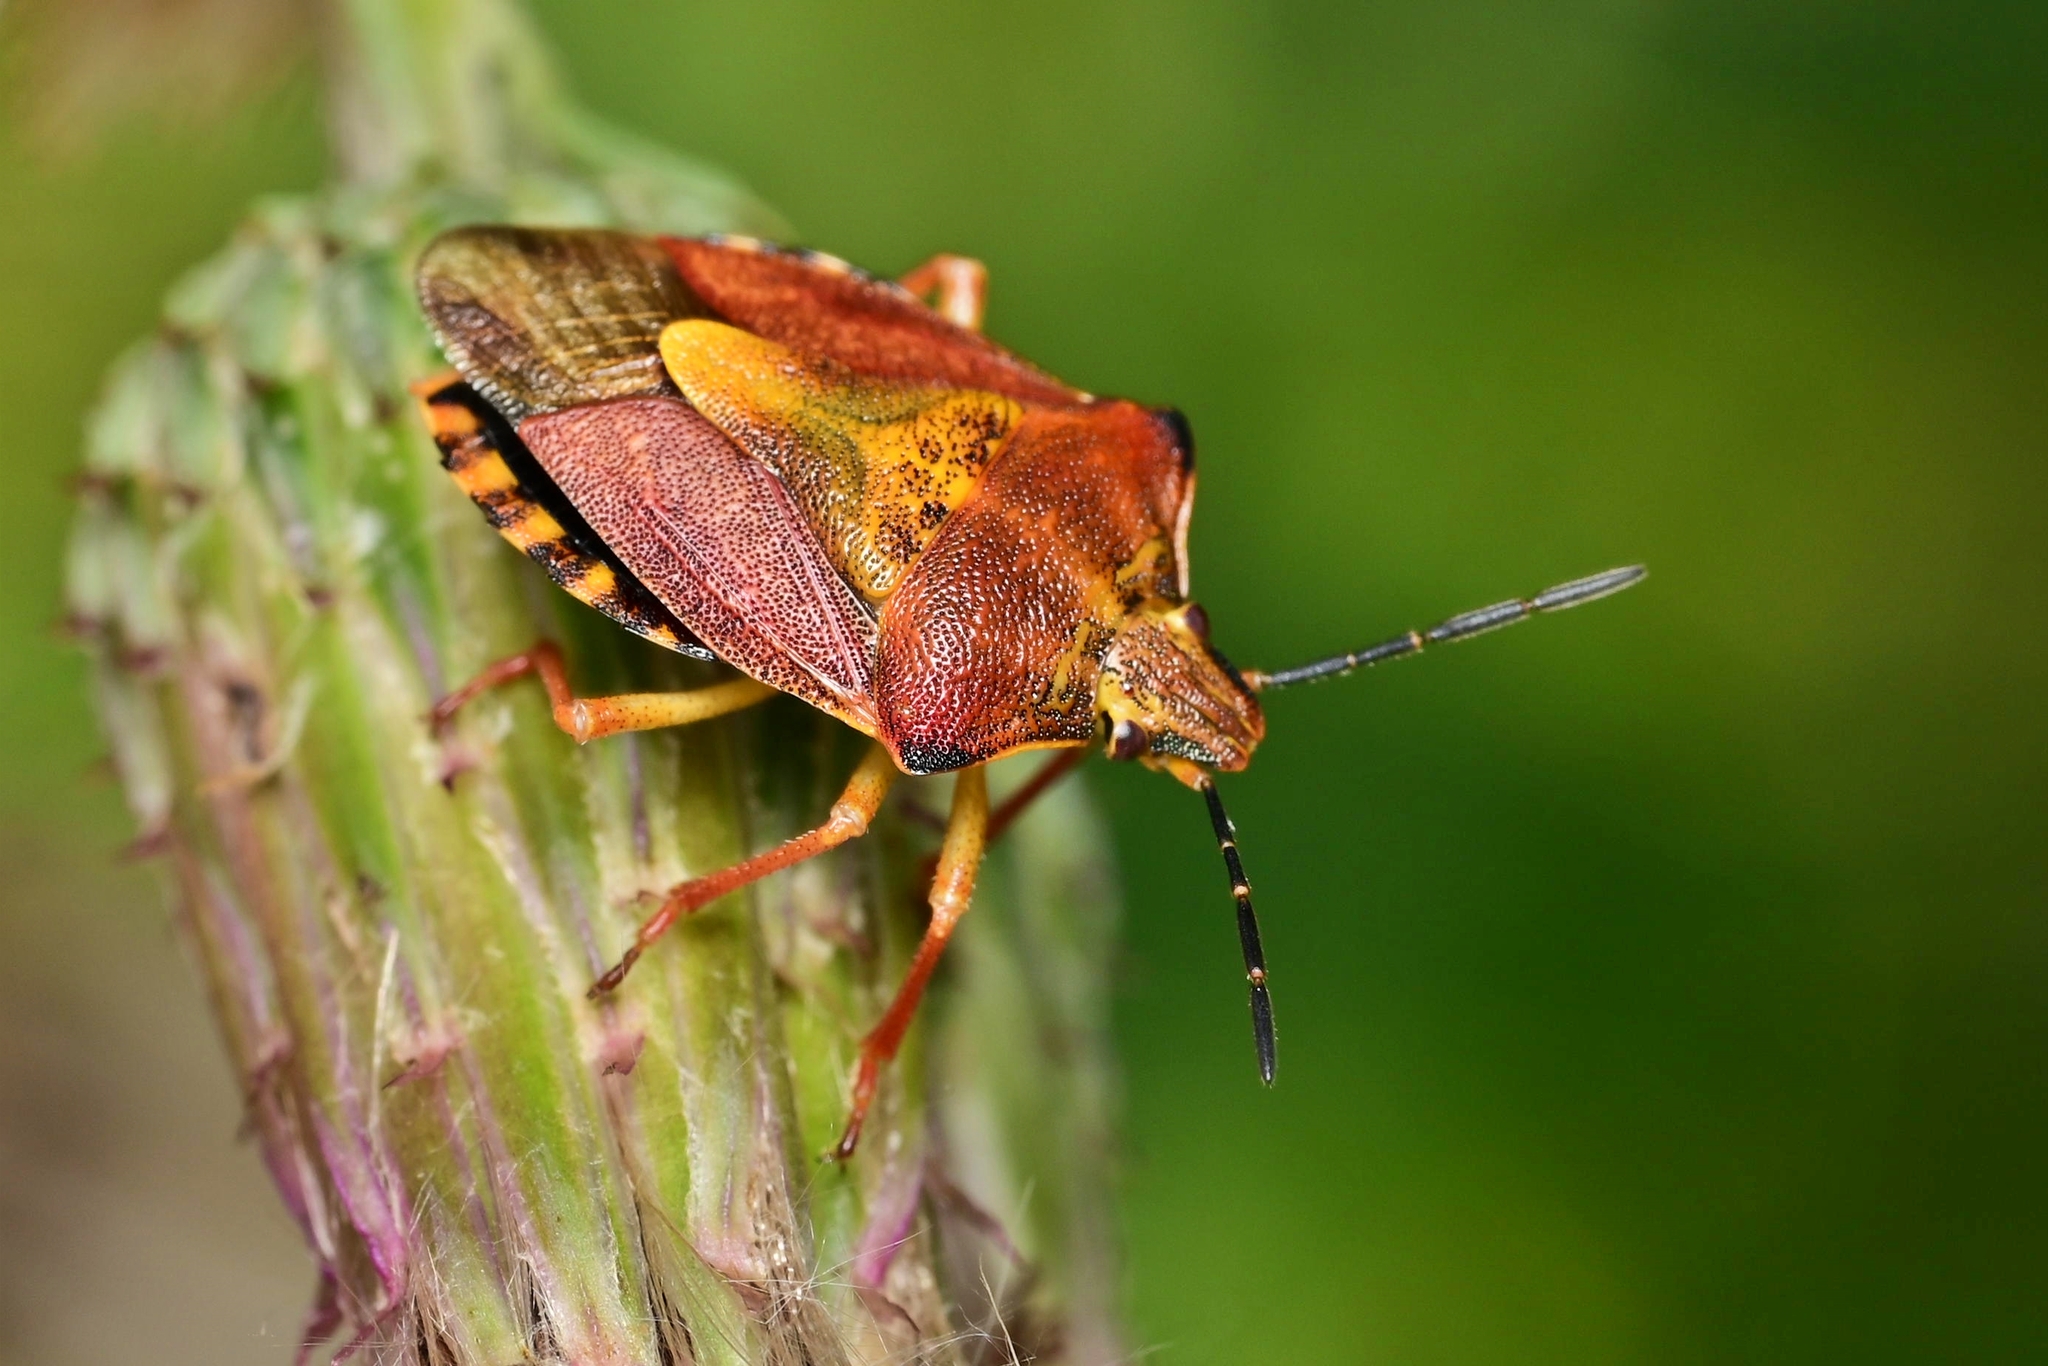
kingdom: Animalia
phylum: Arthropoda
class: Insecta
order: Hemiptera
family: Pentatomidae
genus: Carpocoris
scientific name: Carpocoris purpureipennis
